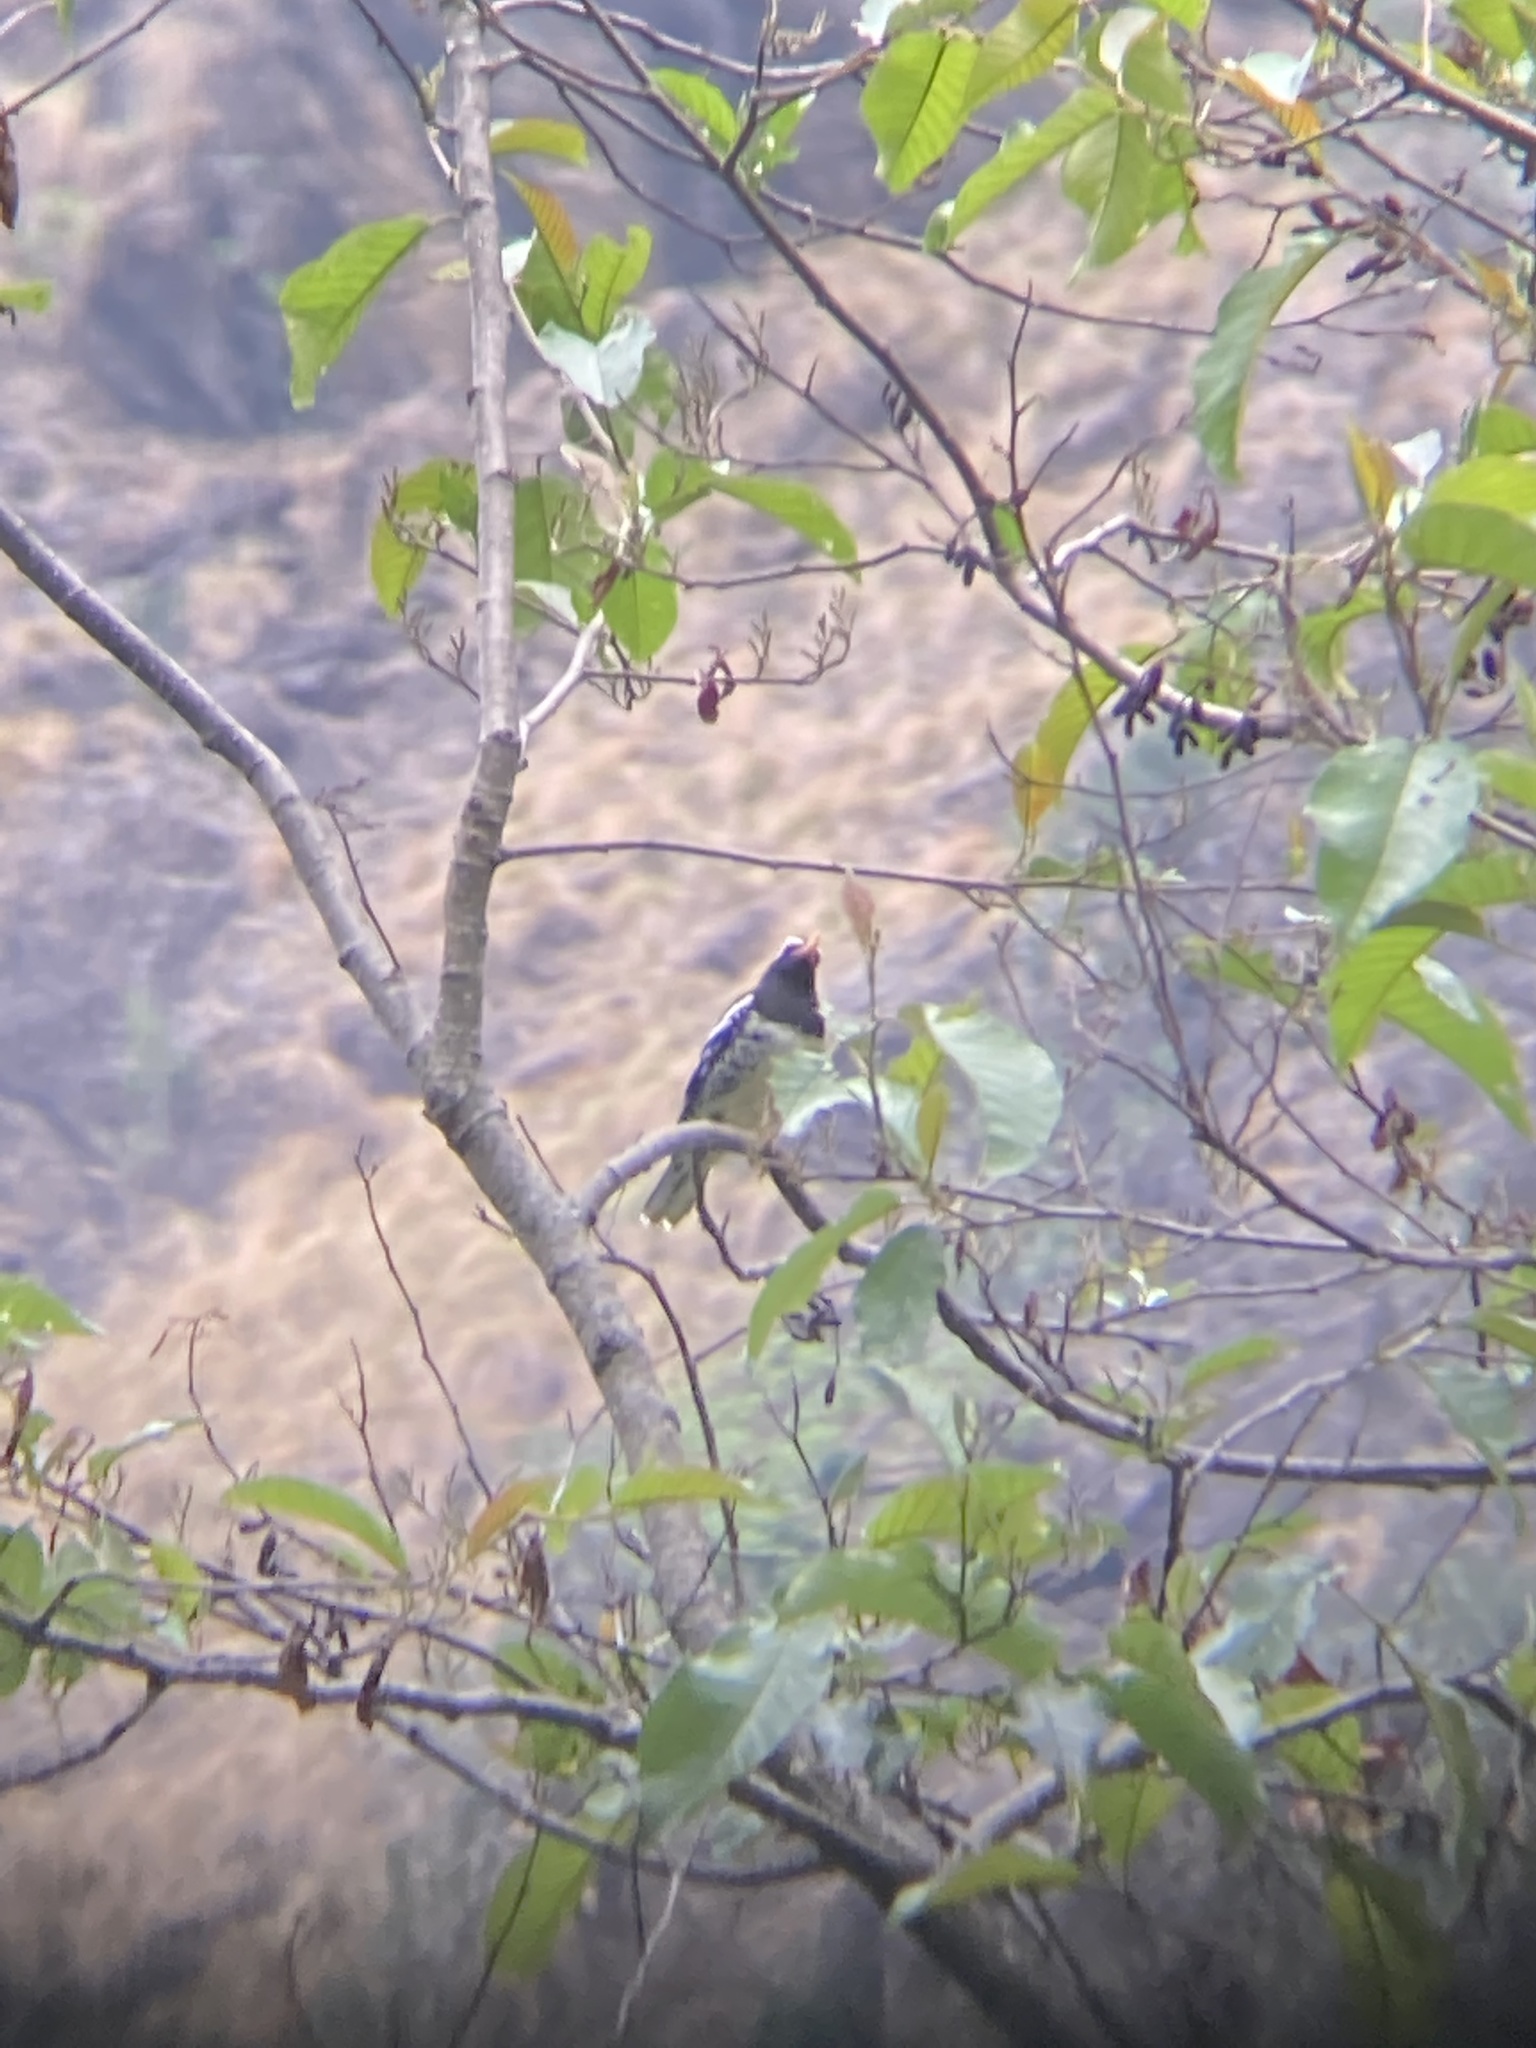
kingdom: Animalia
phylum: Chordata
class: Aves
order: Passeriformes
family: Turdidae
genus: Geokichla
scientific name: Geokichla wardii
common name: Pied thrush
